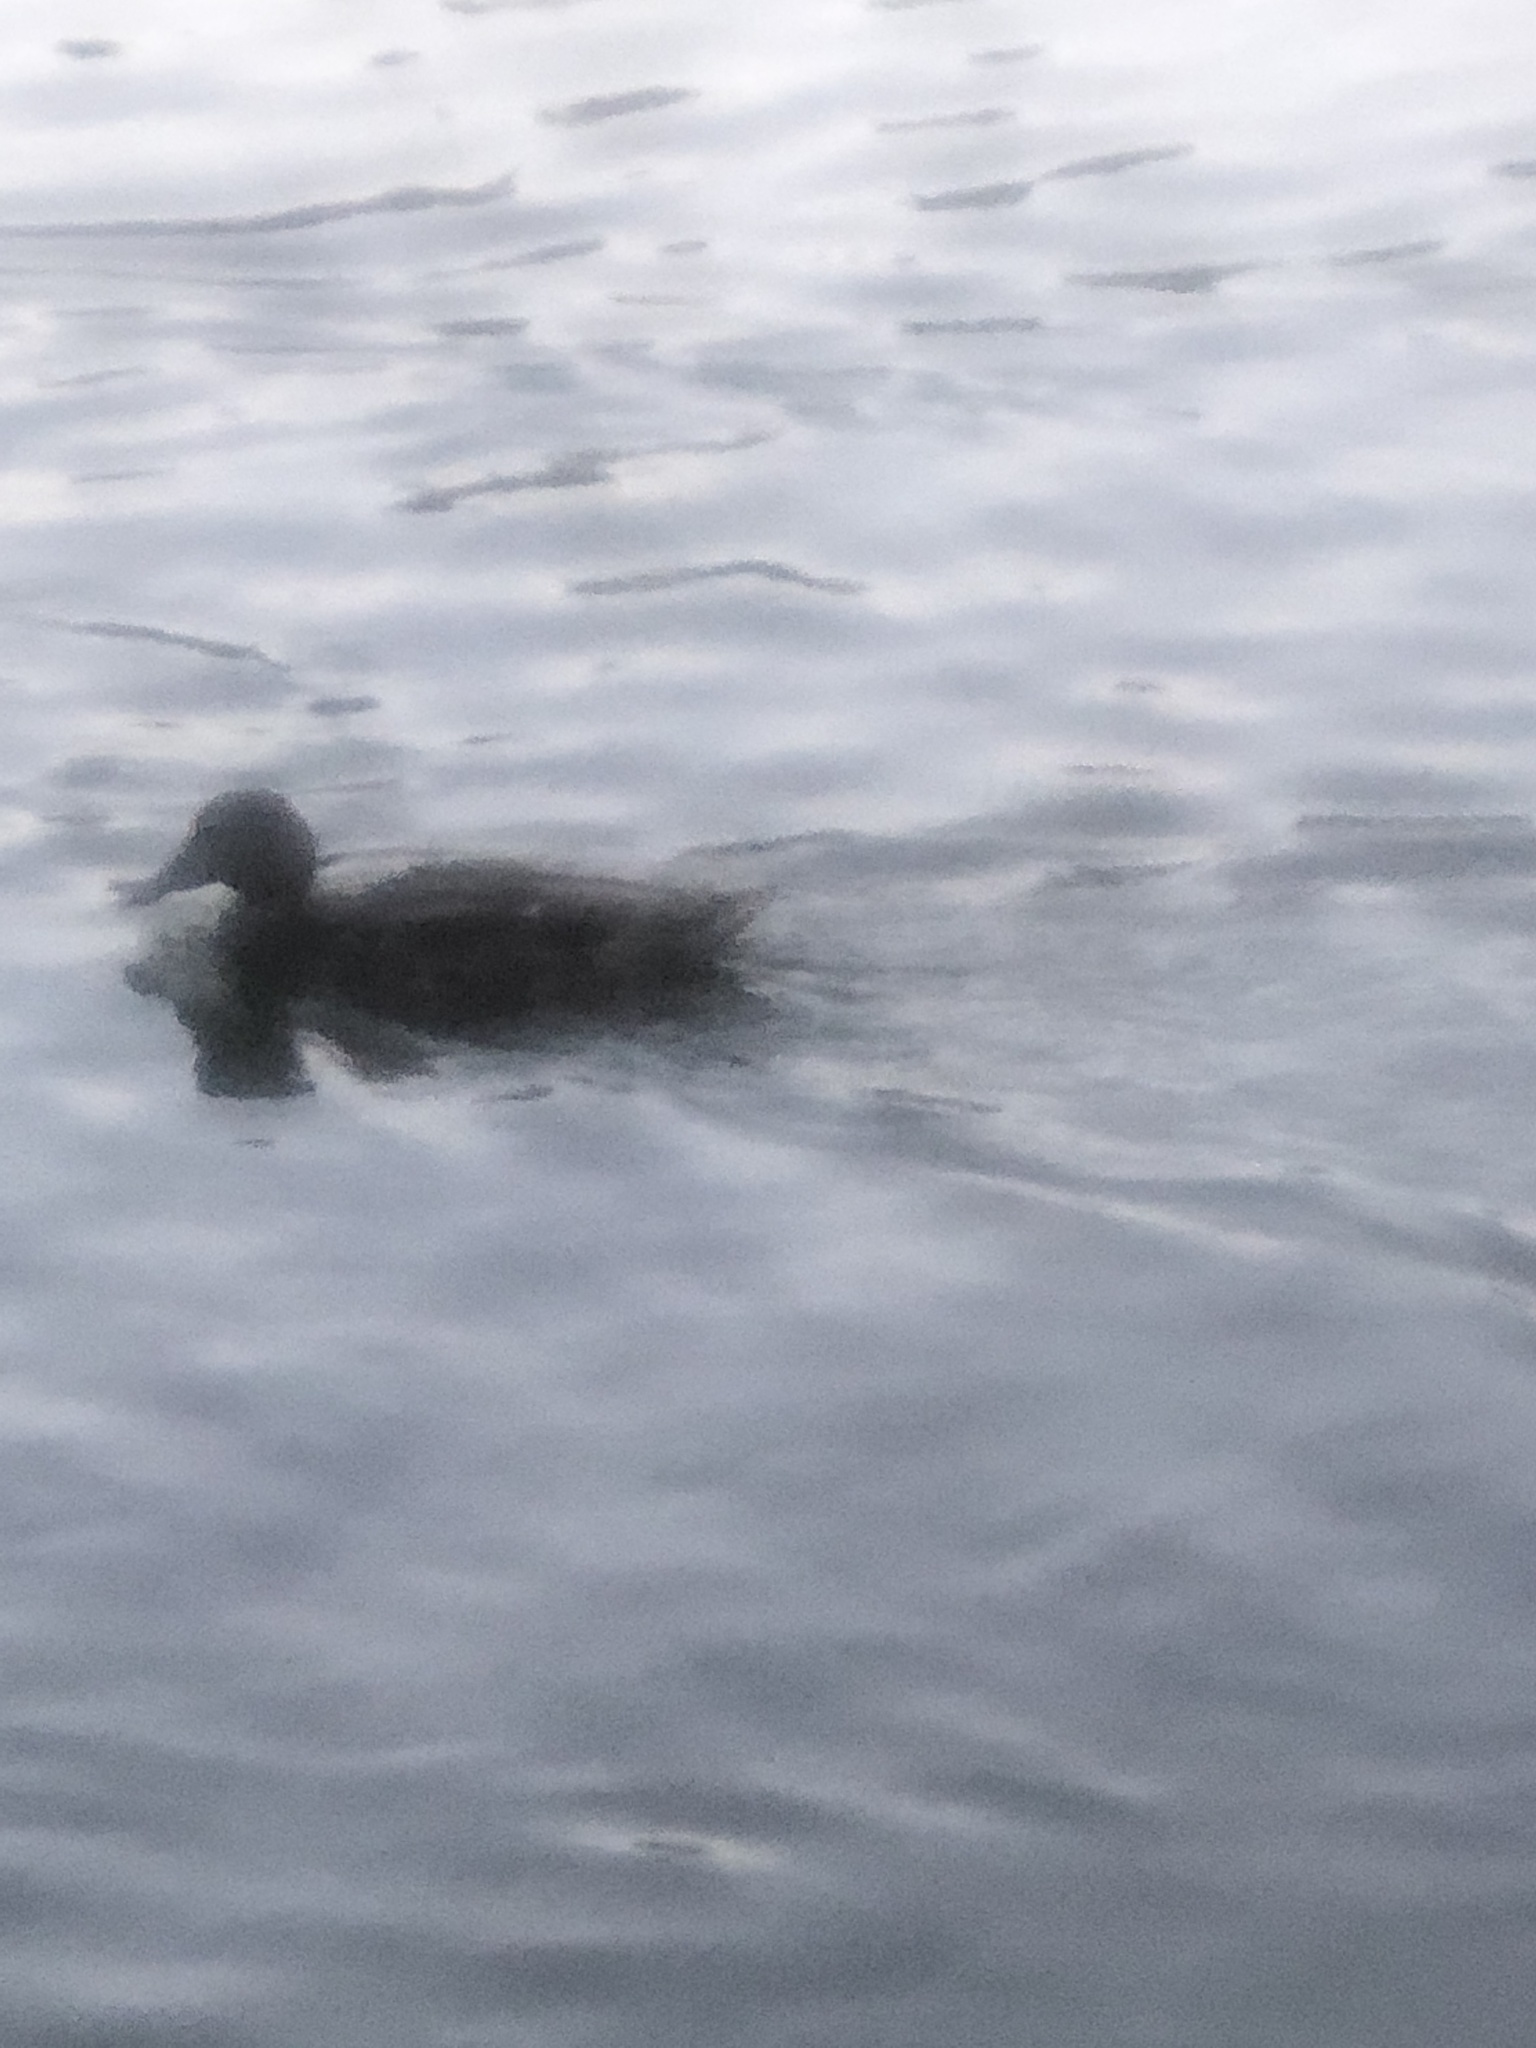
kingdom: Animalia
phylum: Chordata
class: Aves
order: Anseriformes
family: Anatidae
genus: Anas
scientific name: Anas platyrhynchos
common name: Mallard
